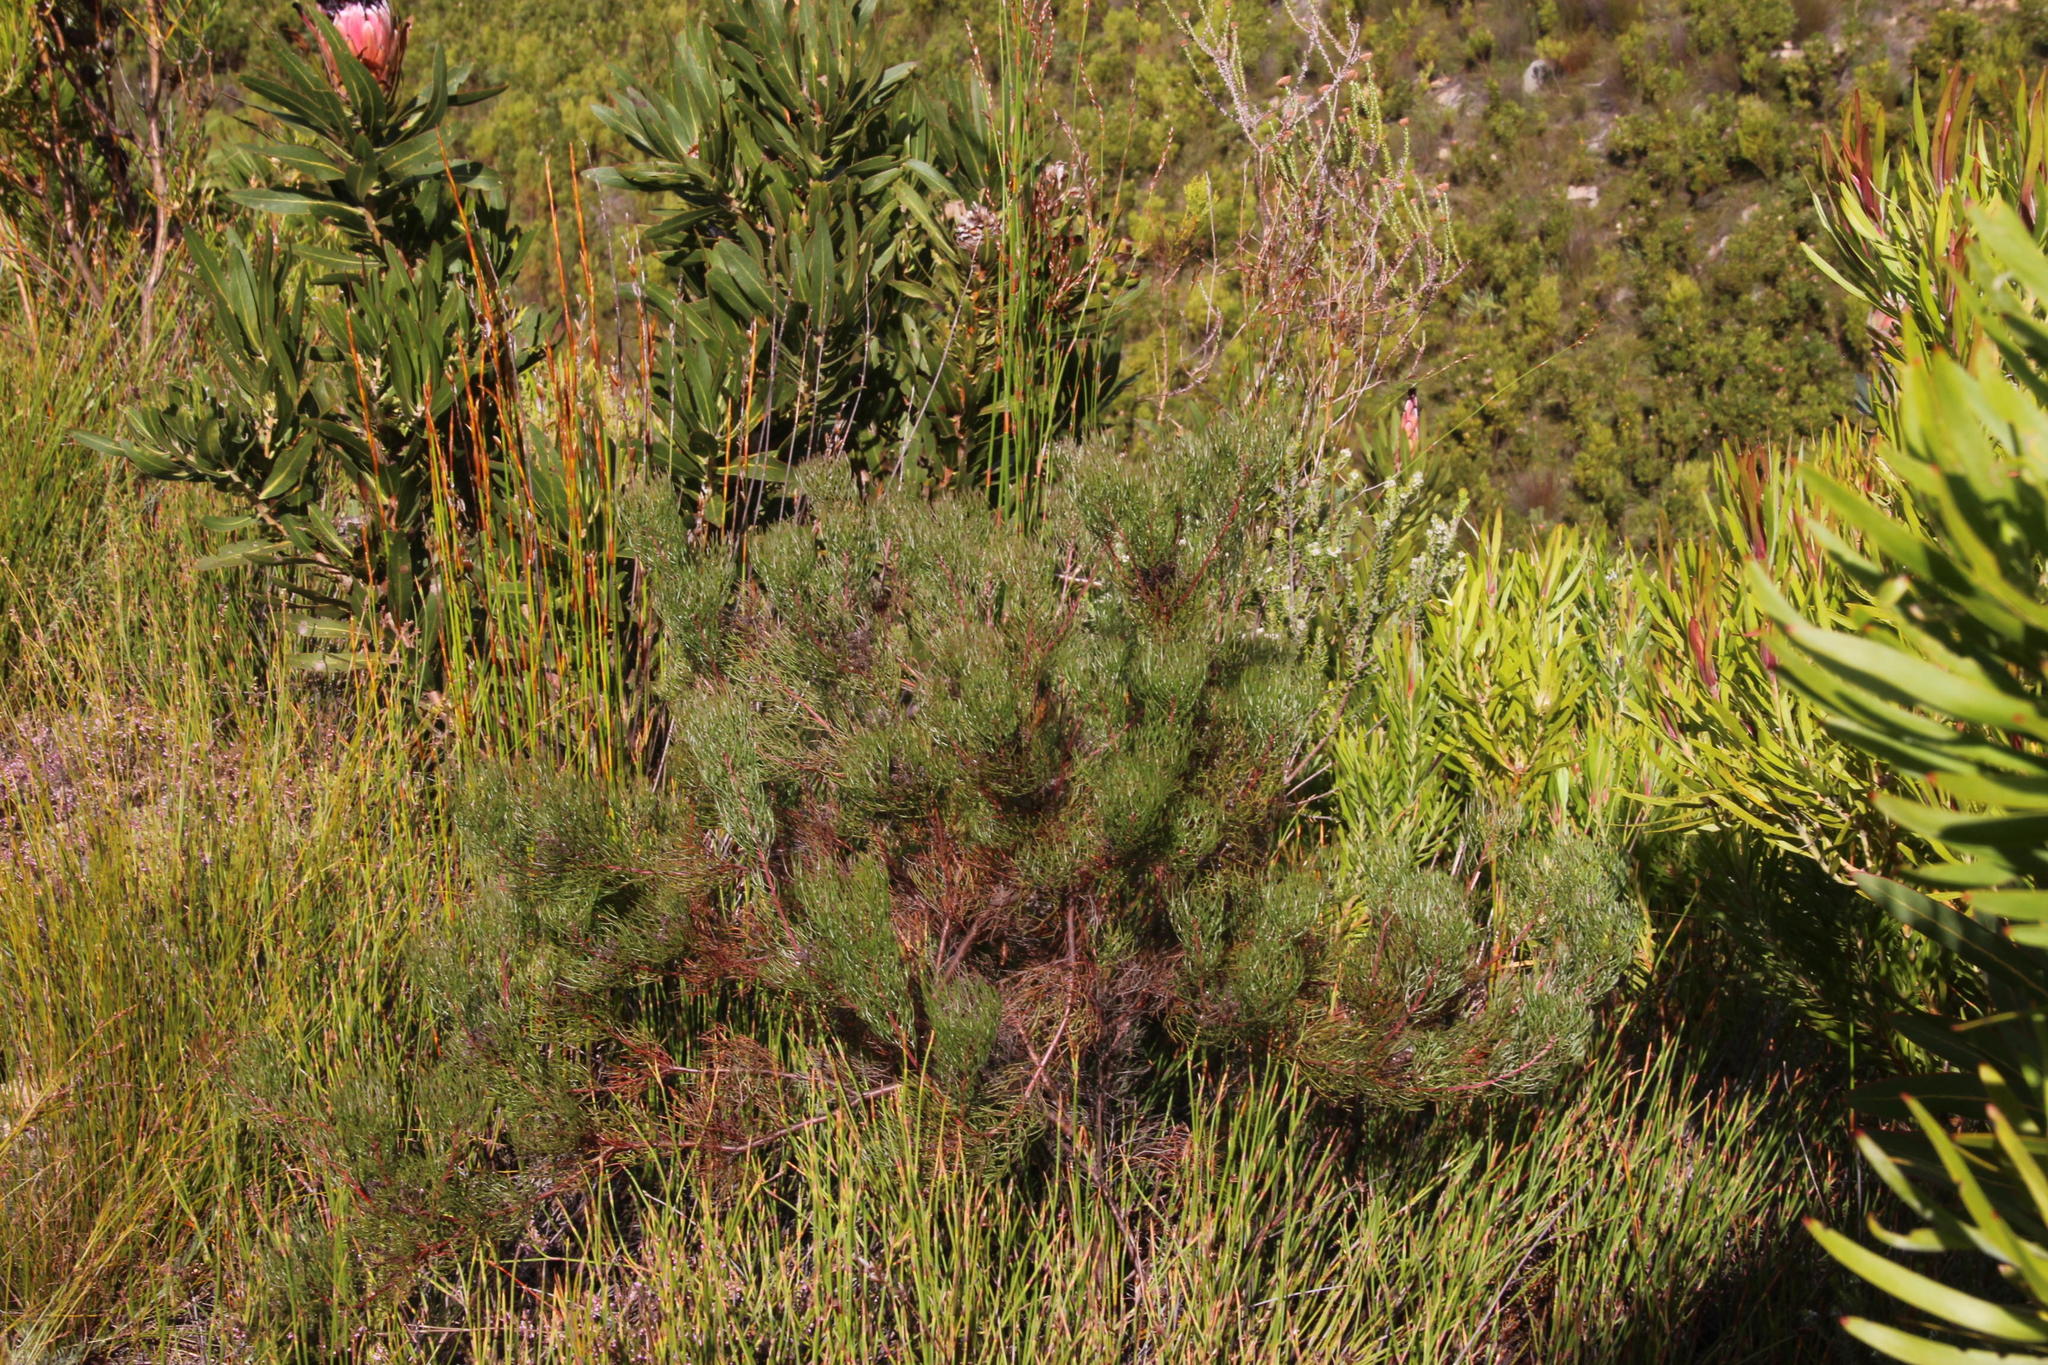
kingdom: Plantae
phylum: Tracheophyta
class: Magnoliopsida
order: Proteales
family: Proteaceae
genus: Serruria
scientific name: Serruria fasciflora
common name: Common pin spiderhead
